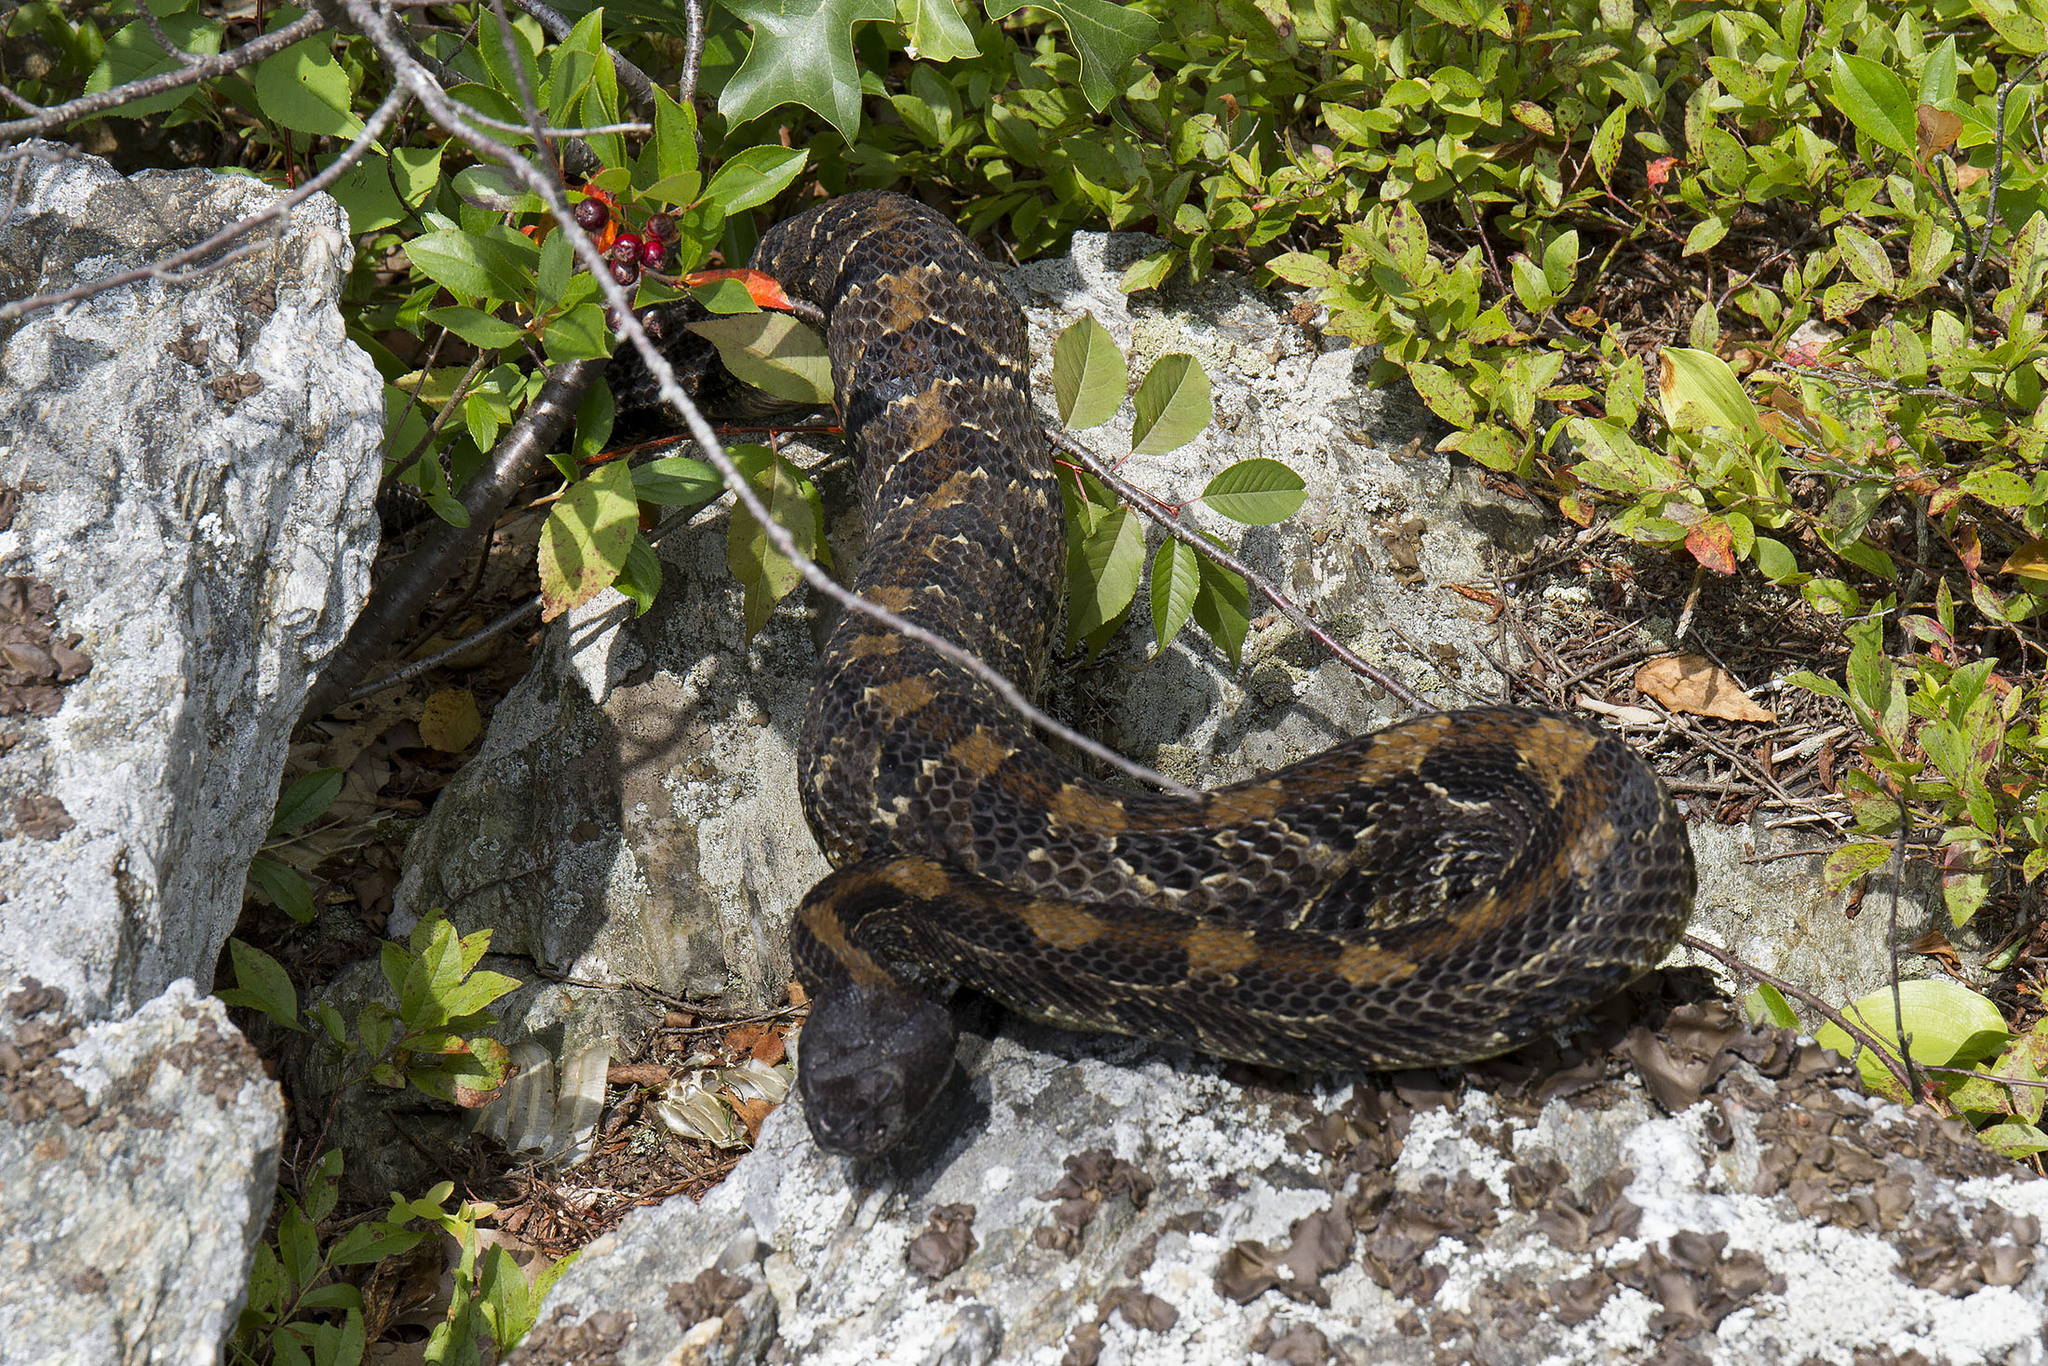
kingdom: Animalia
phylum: Chordata
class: Squamata
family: Viperidae
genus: Crotalus
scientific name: Crotalus horridus
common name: Timber rattlesnake
